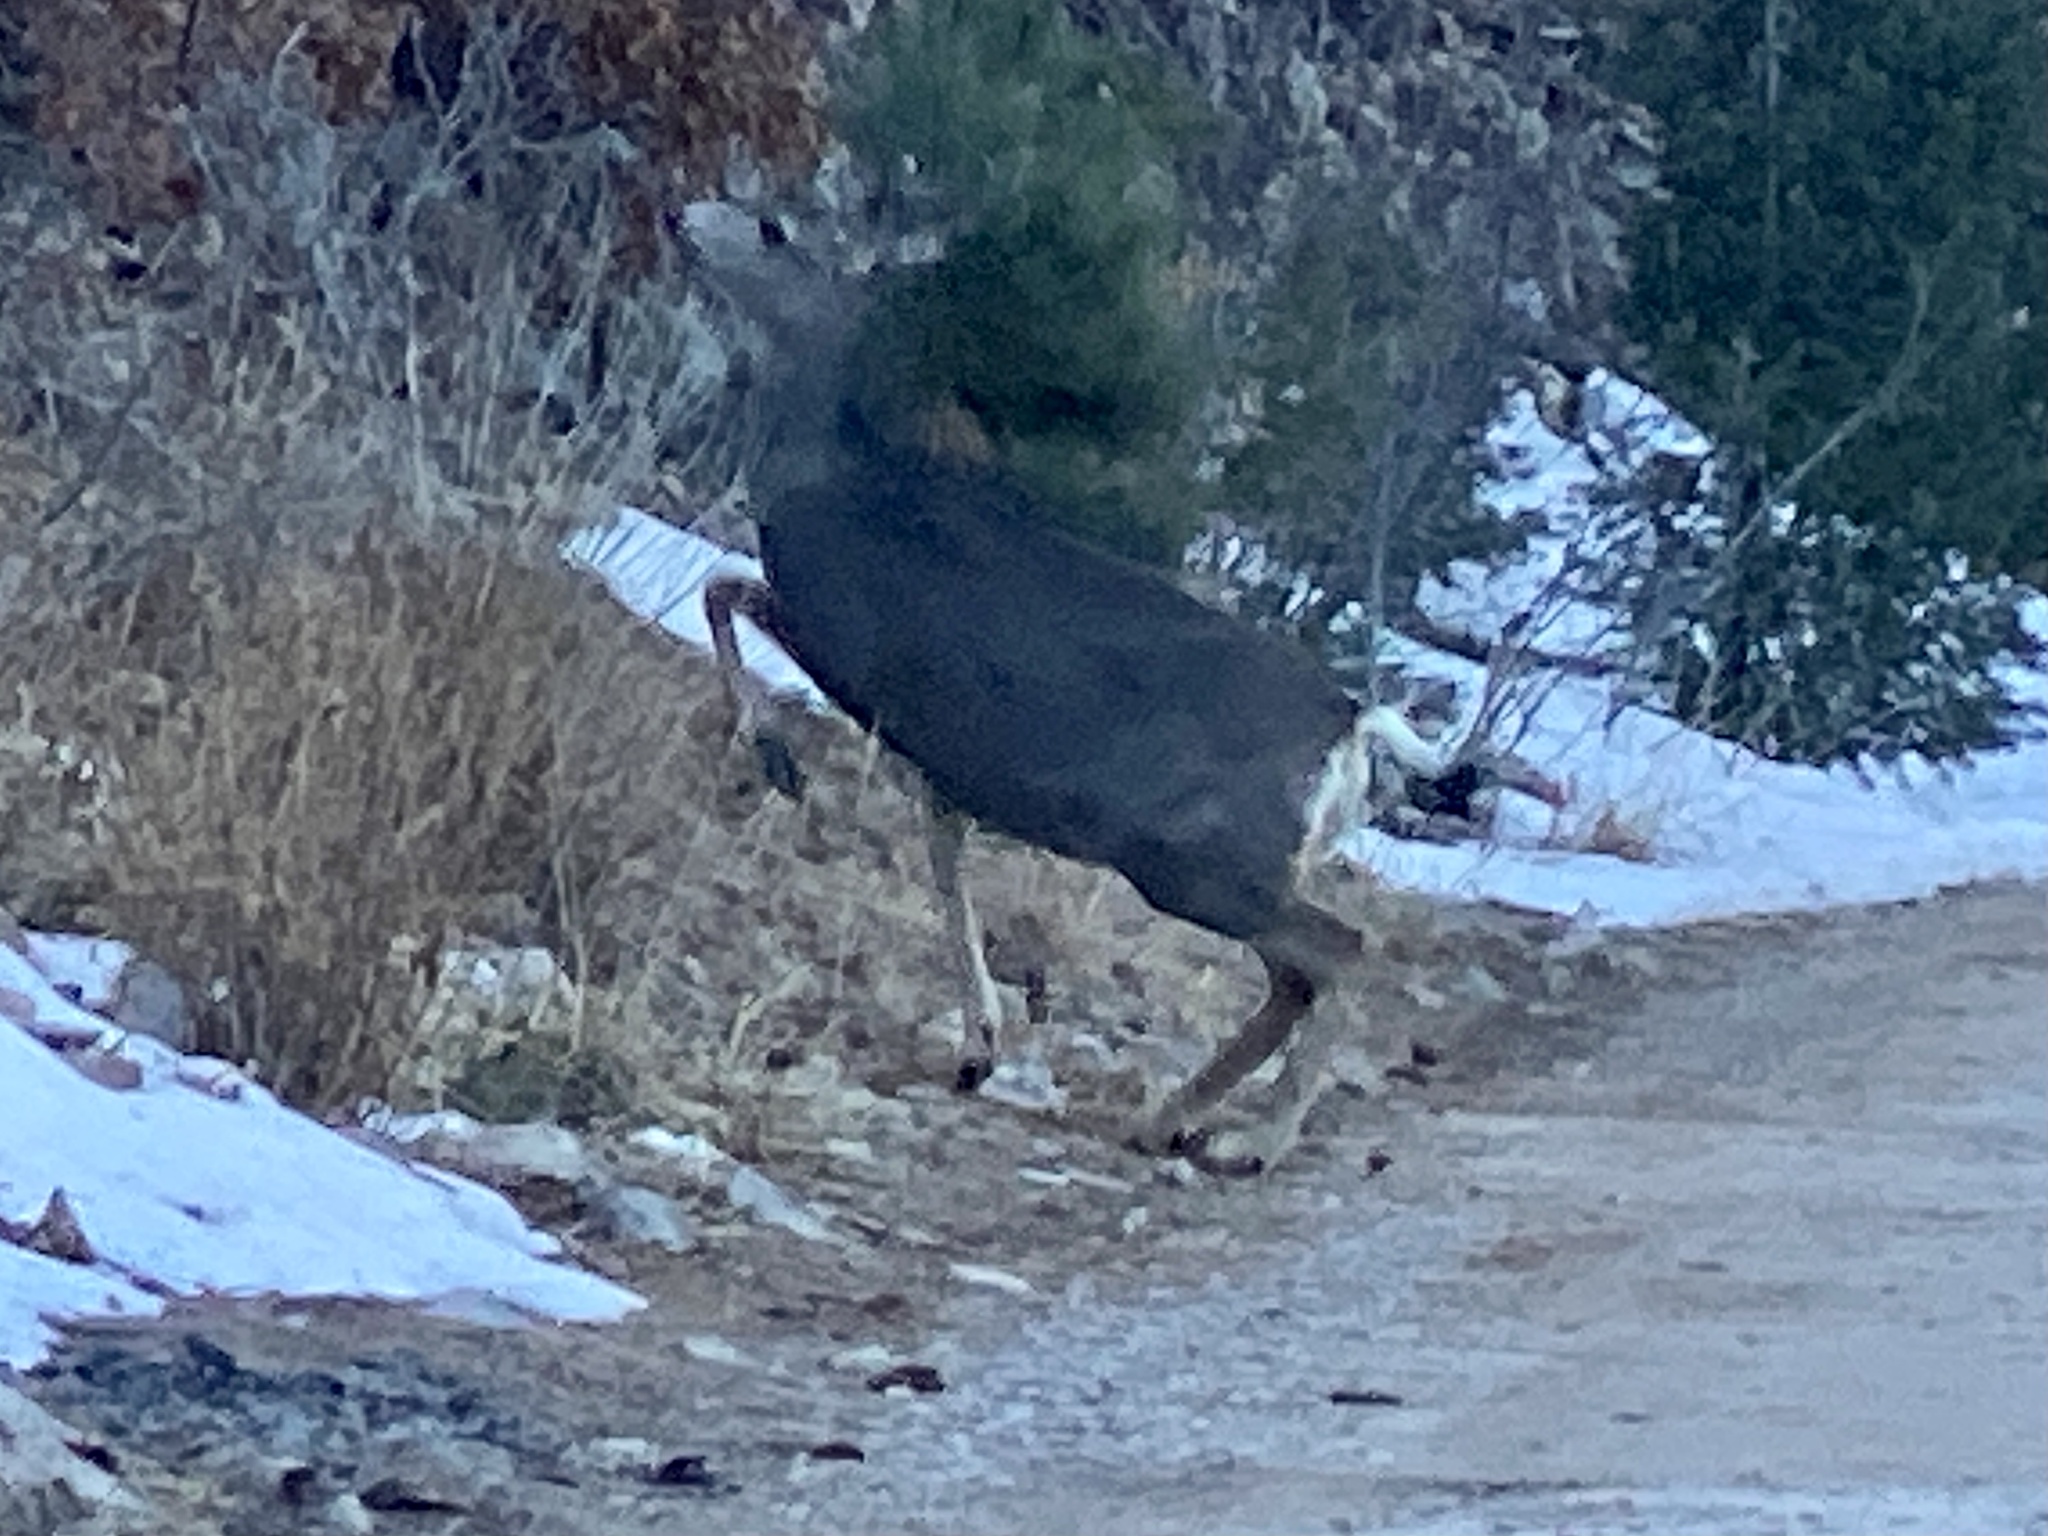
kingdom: Animalia
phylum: Chordata
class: Mammalia
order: Artiodactyla
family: Cervidae
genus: Odocoileus
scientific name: Odocoileus hemionus
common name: Mule deer
